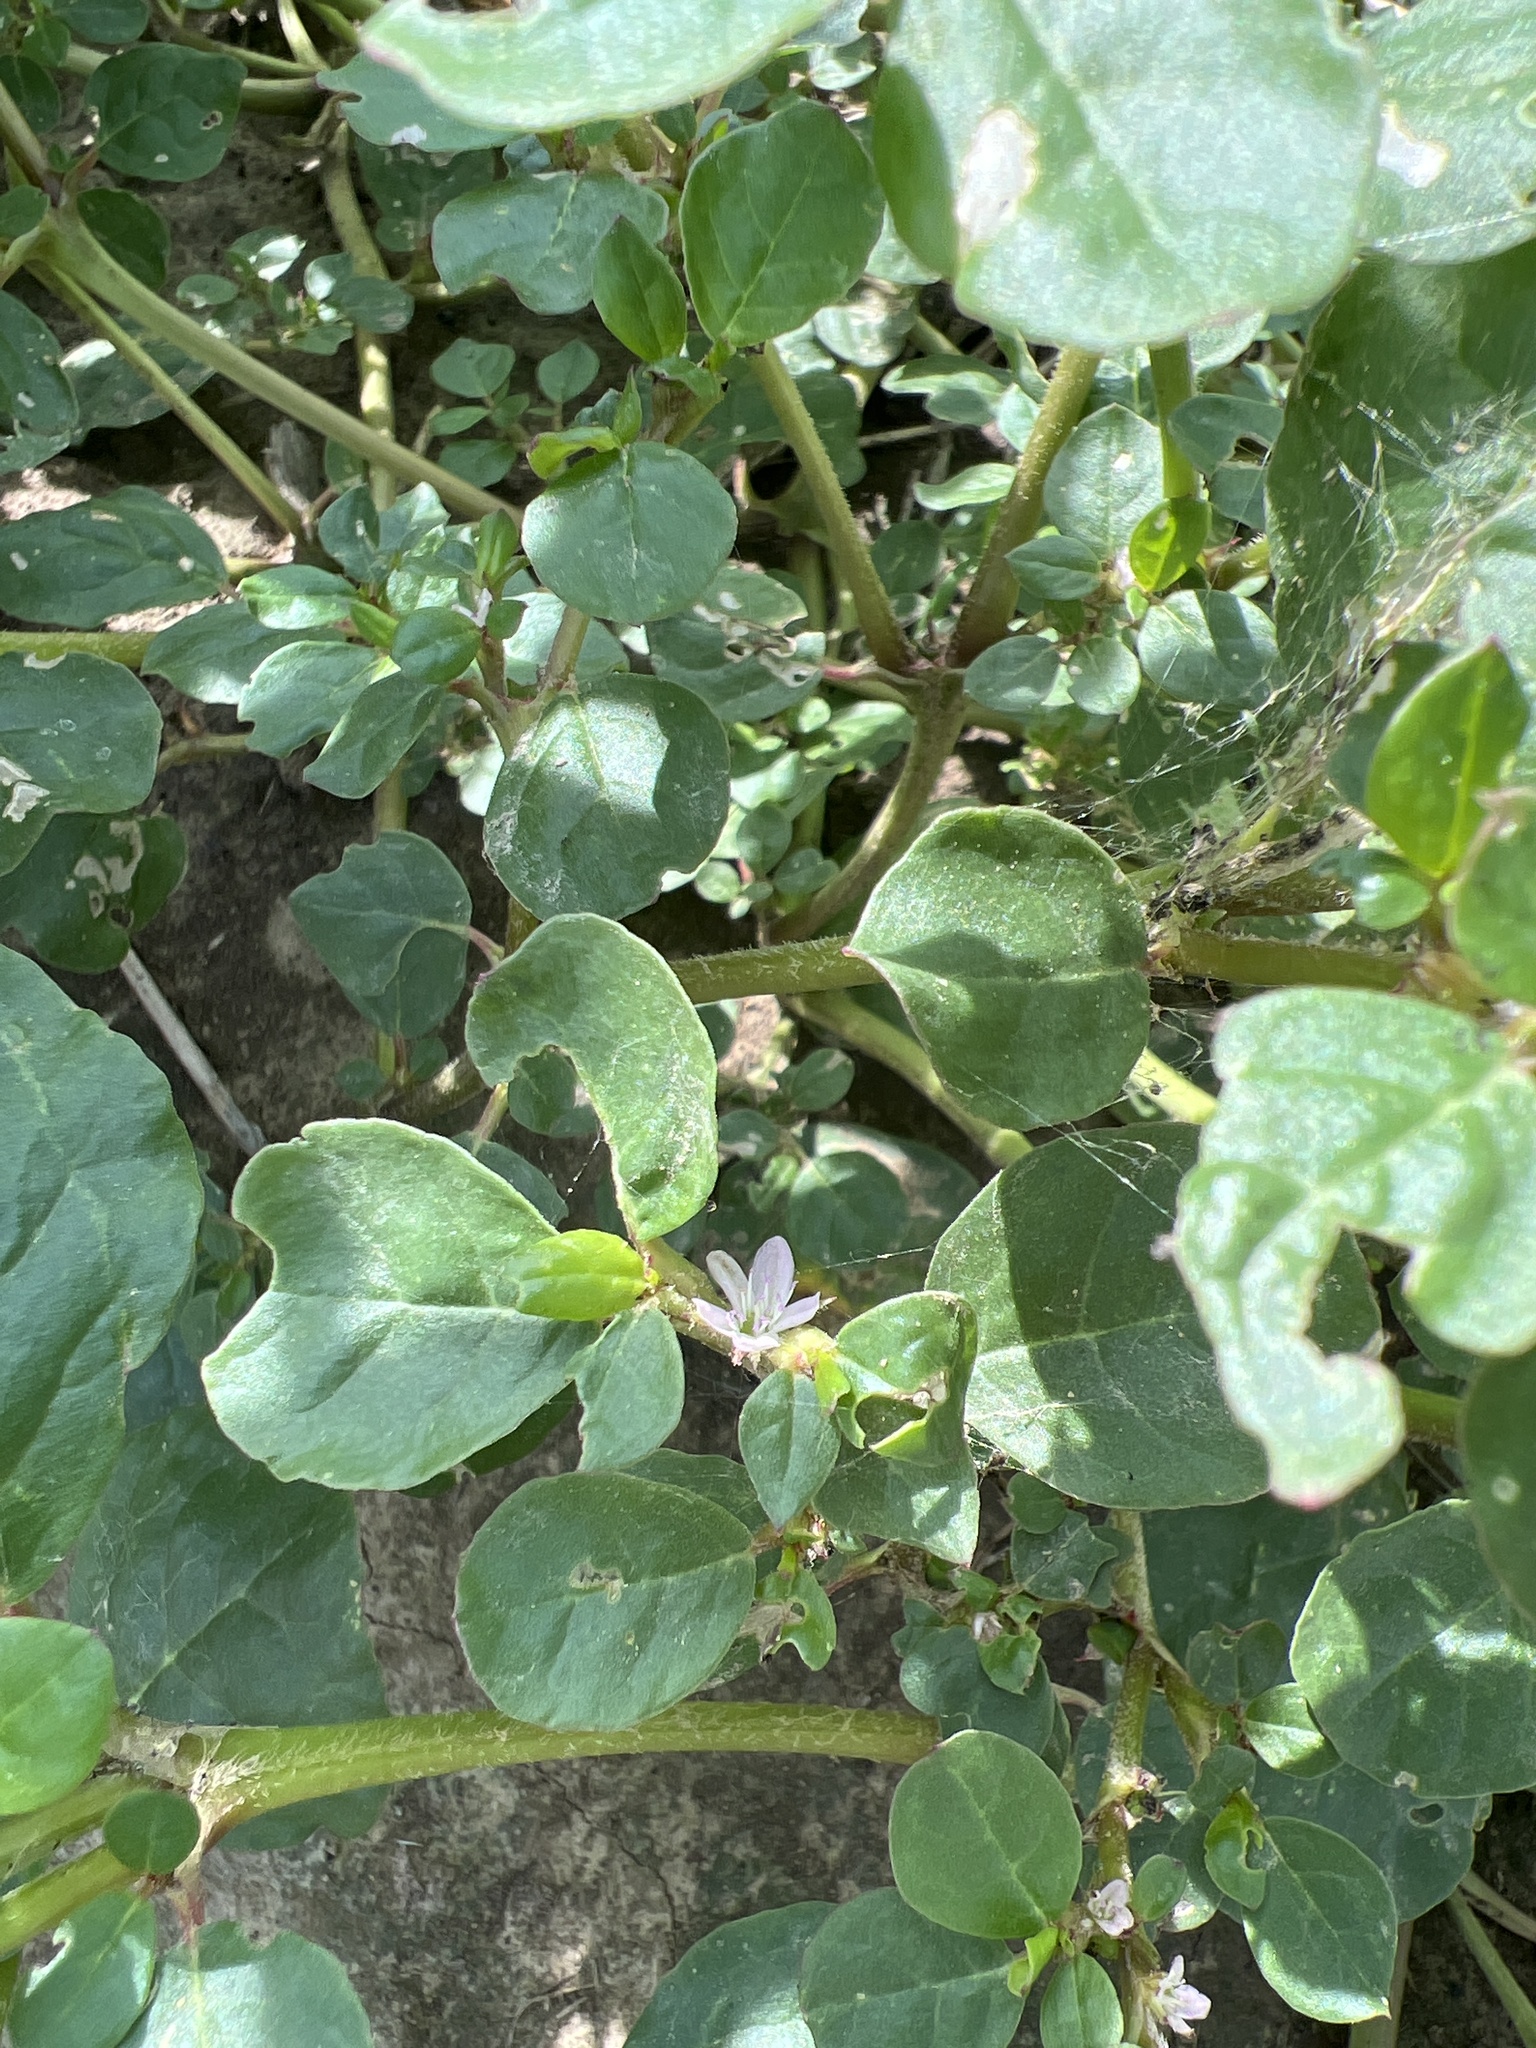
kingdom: Plantae
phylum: Tracheophyta
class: Magnoliopsida
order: Caryophyllales
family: Aizoaceae
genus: Trianthema
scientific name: Trianthema portulacastrum
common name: Desert horsepurslane
